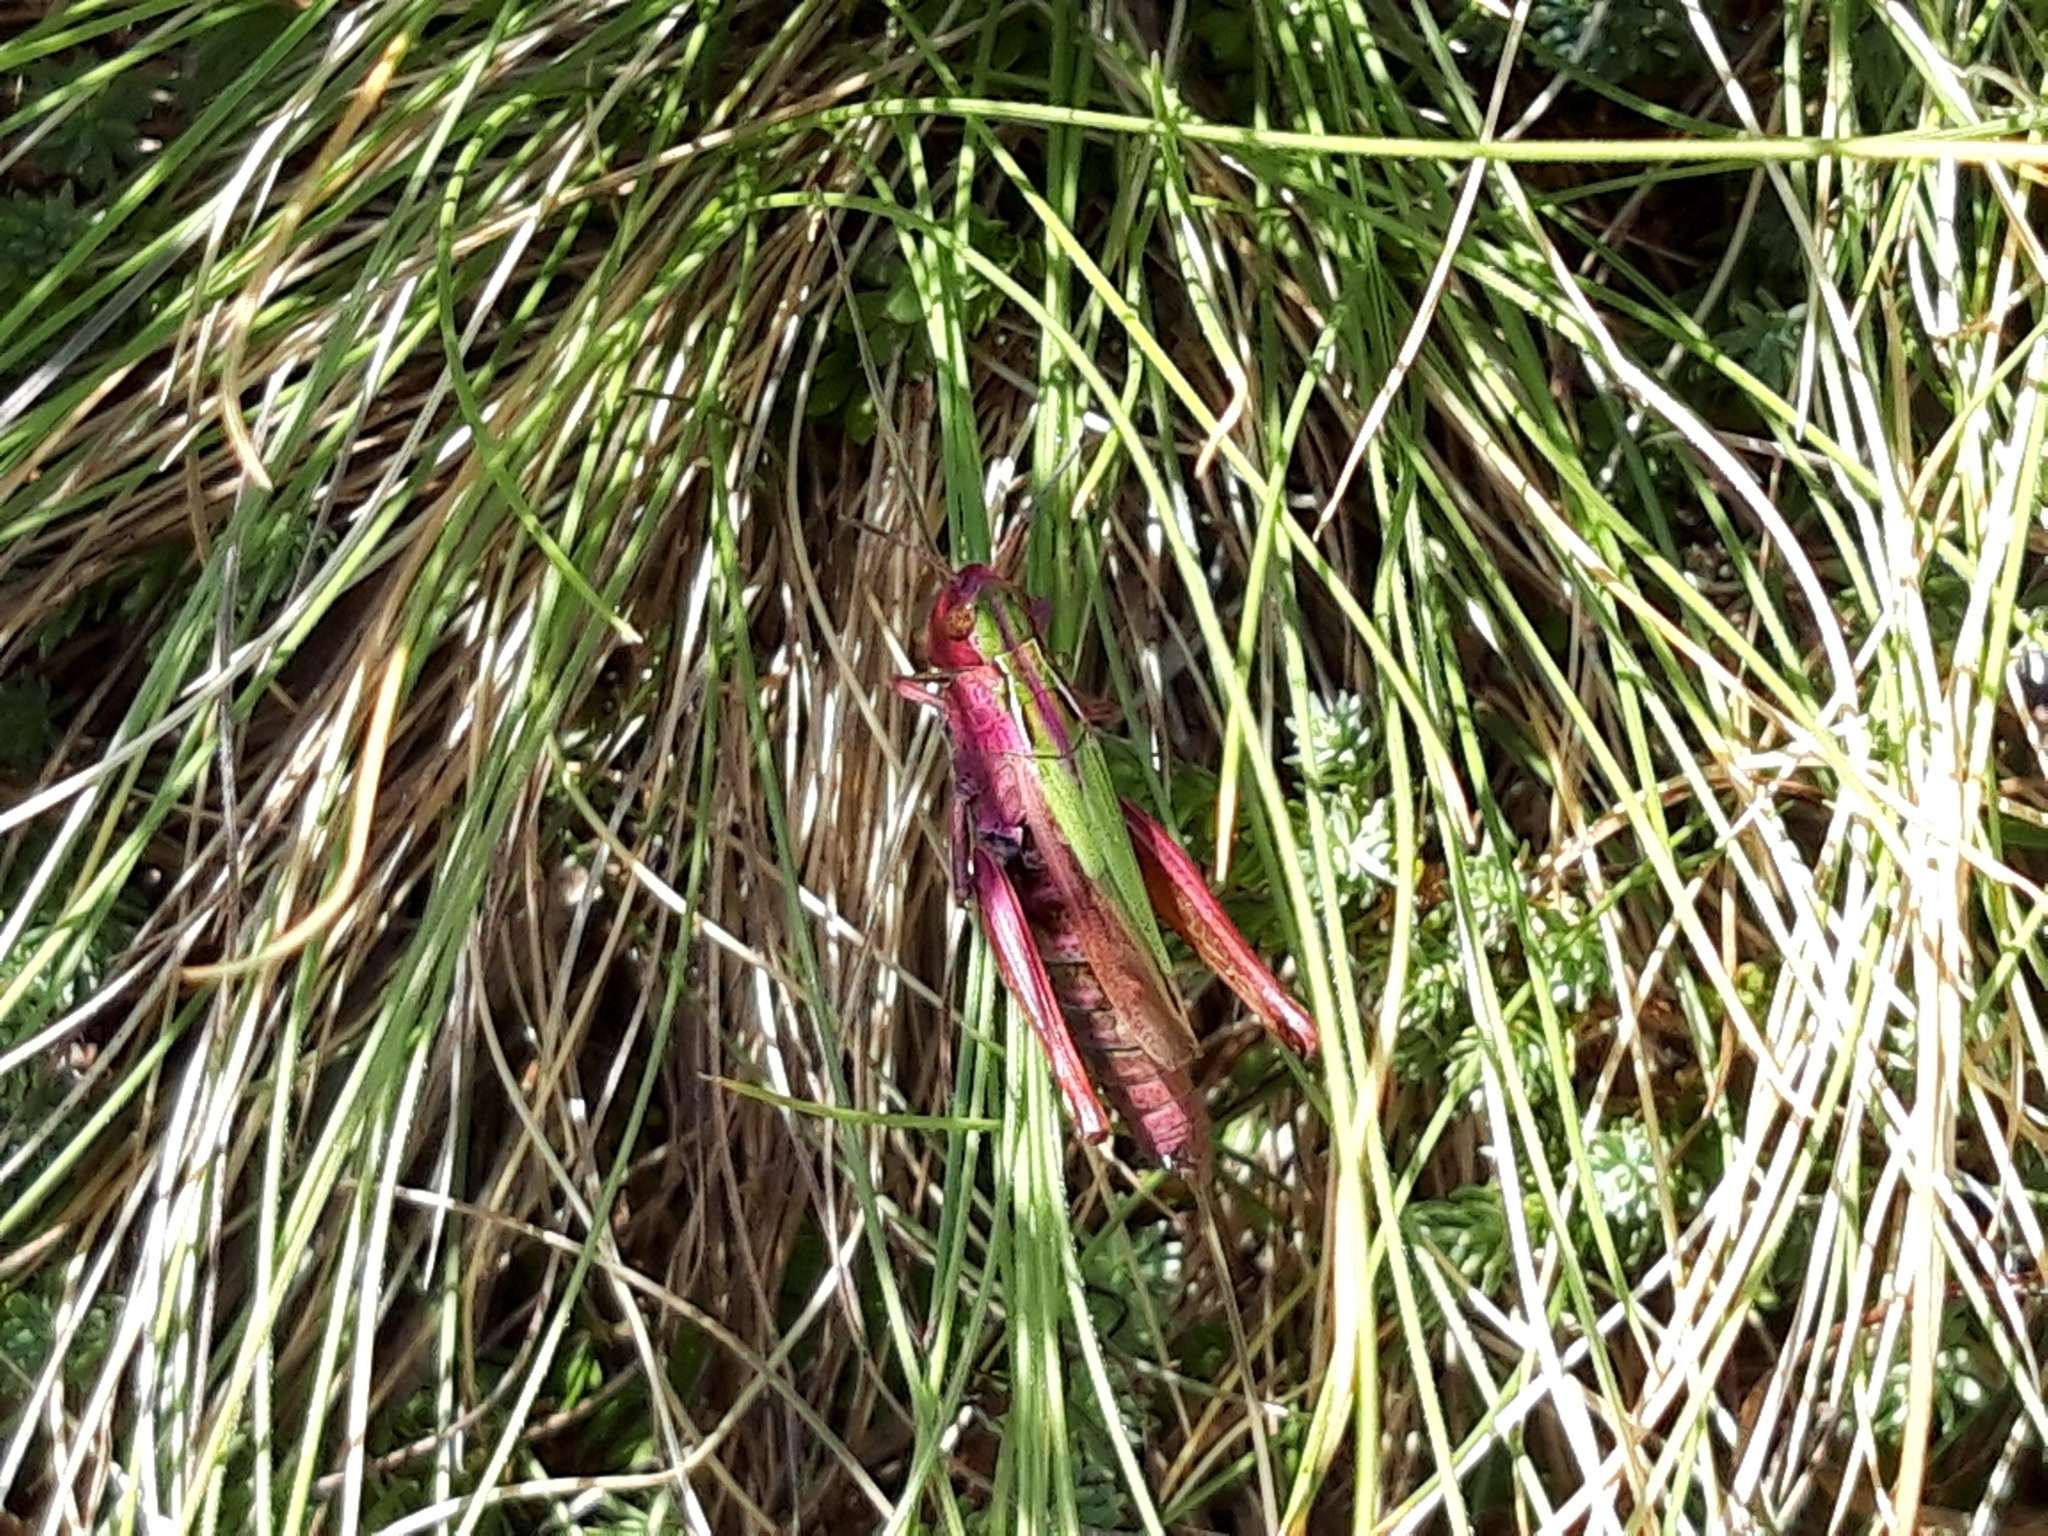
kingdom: Animalia
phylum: Arthropoda
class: Insecta
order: Orthoptera
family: Acrididae
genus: Omocestus
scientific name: Omocestus viridulus
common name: Common green grasshopper
